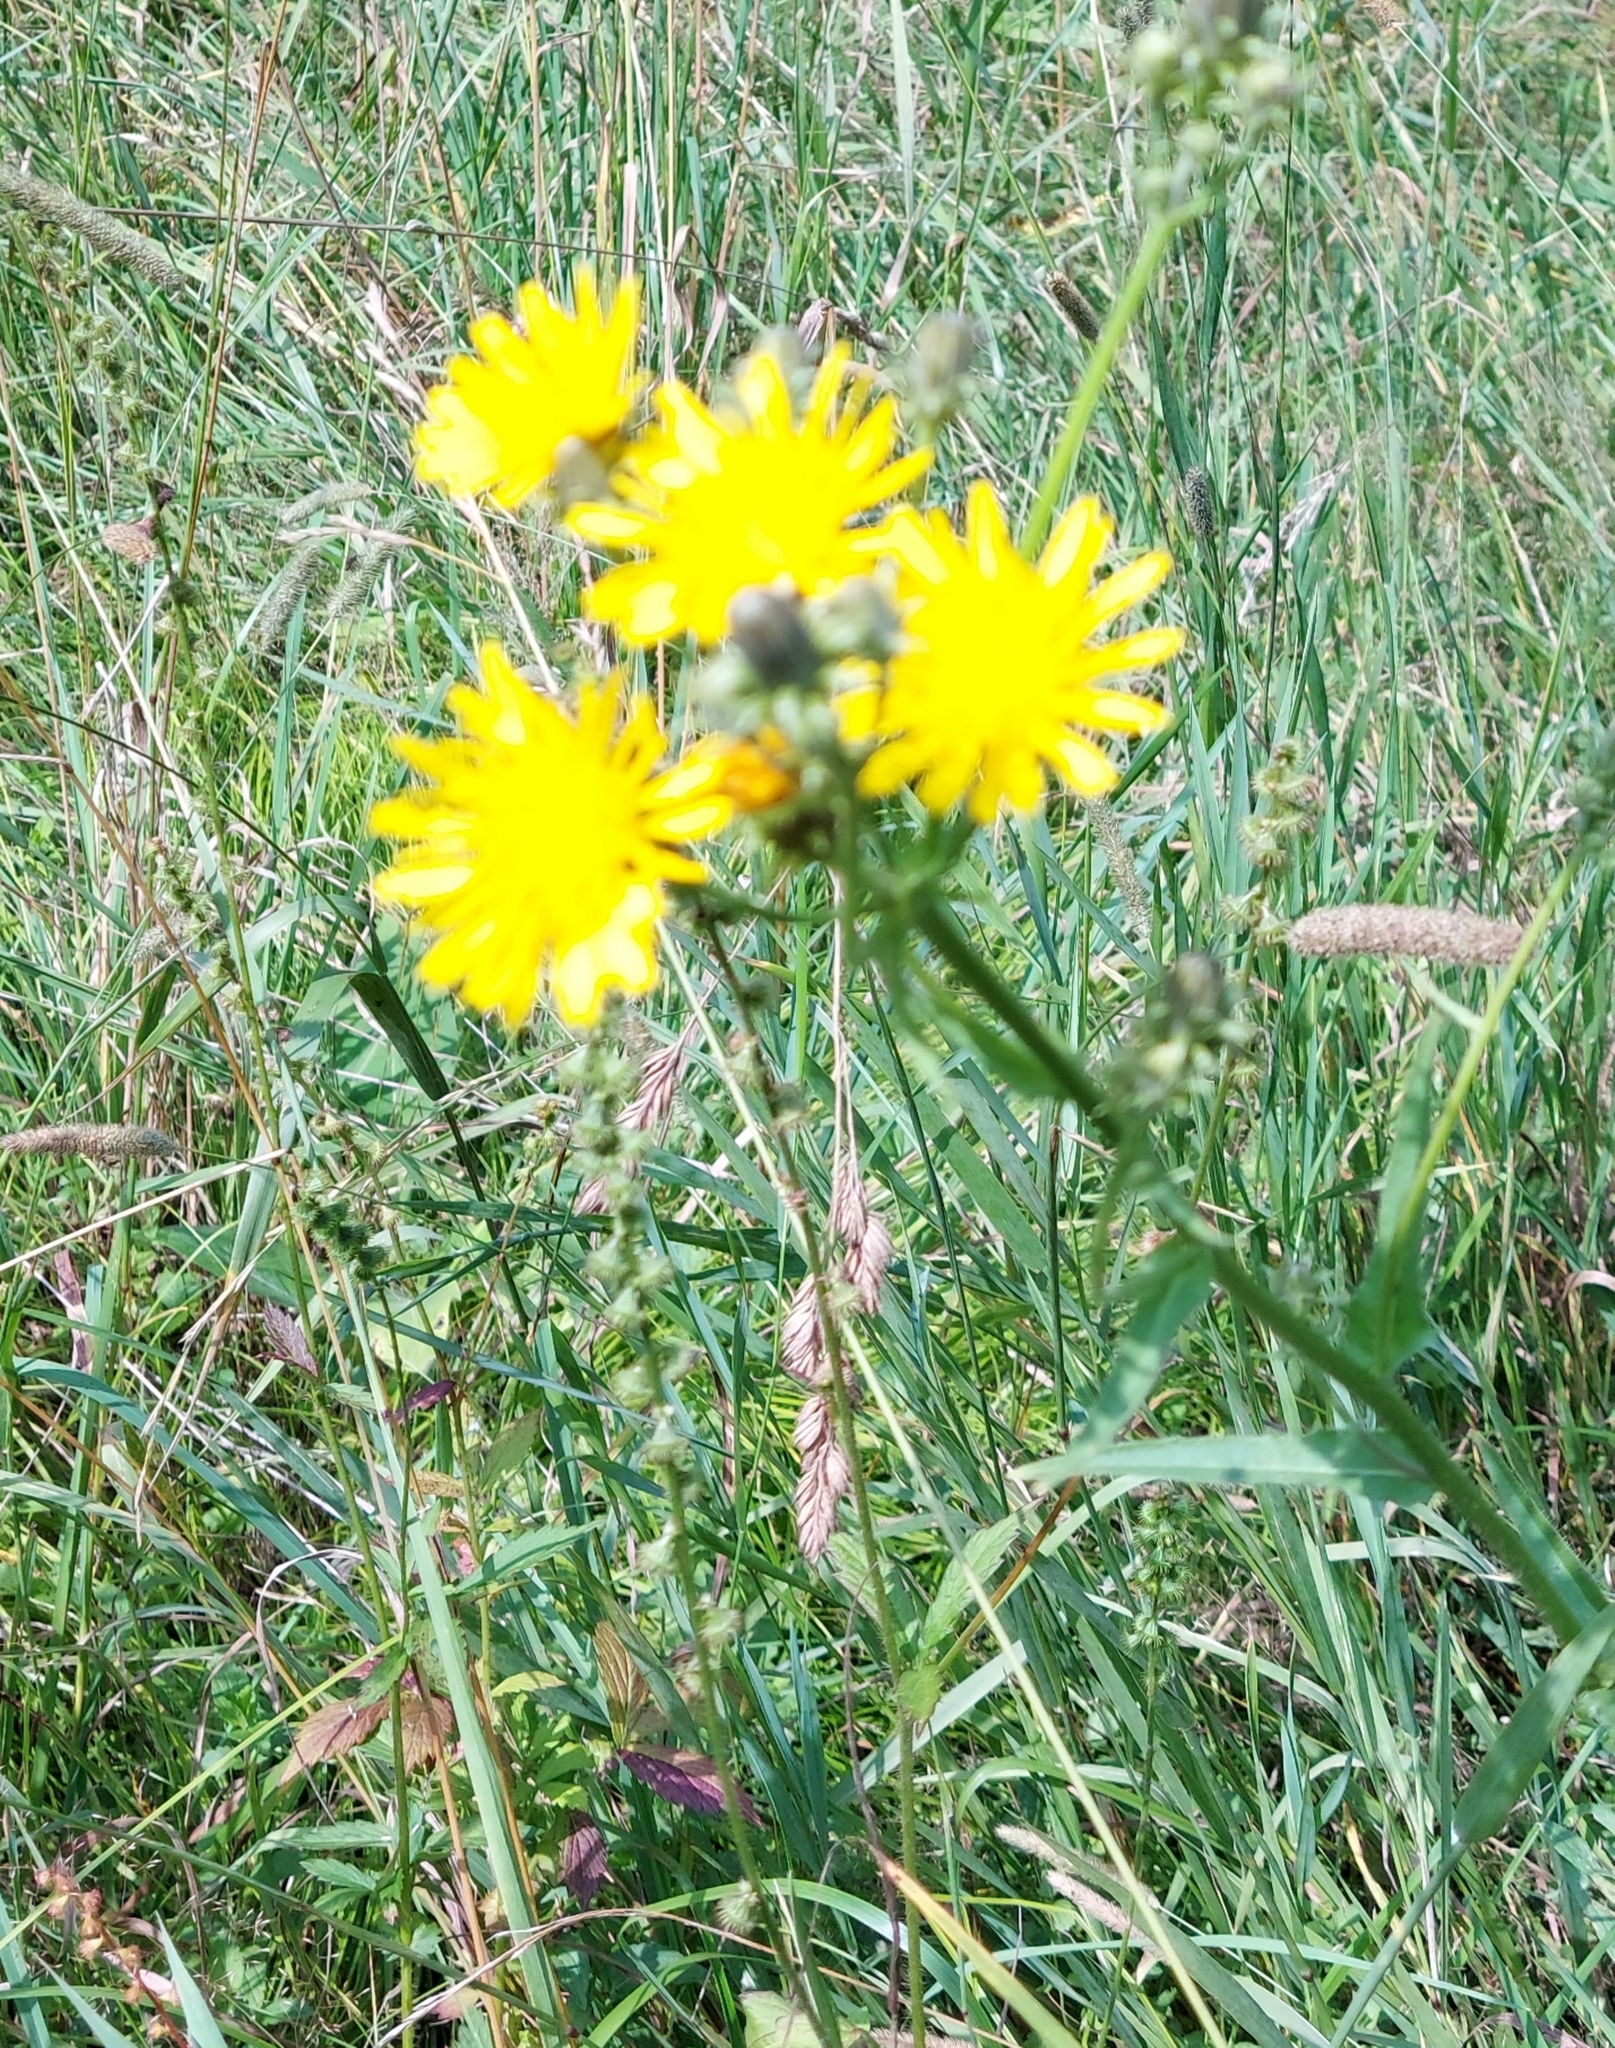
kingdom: Plantae
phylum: Tracheophyta
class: Magnoliopsida
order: Asterales
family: Asteraceae
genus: Picris
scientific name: Picris hieracioides
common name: Hawkweed oxtongue
